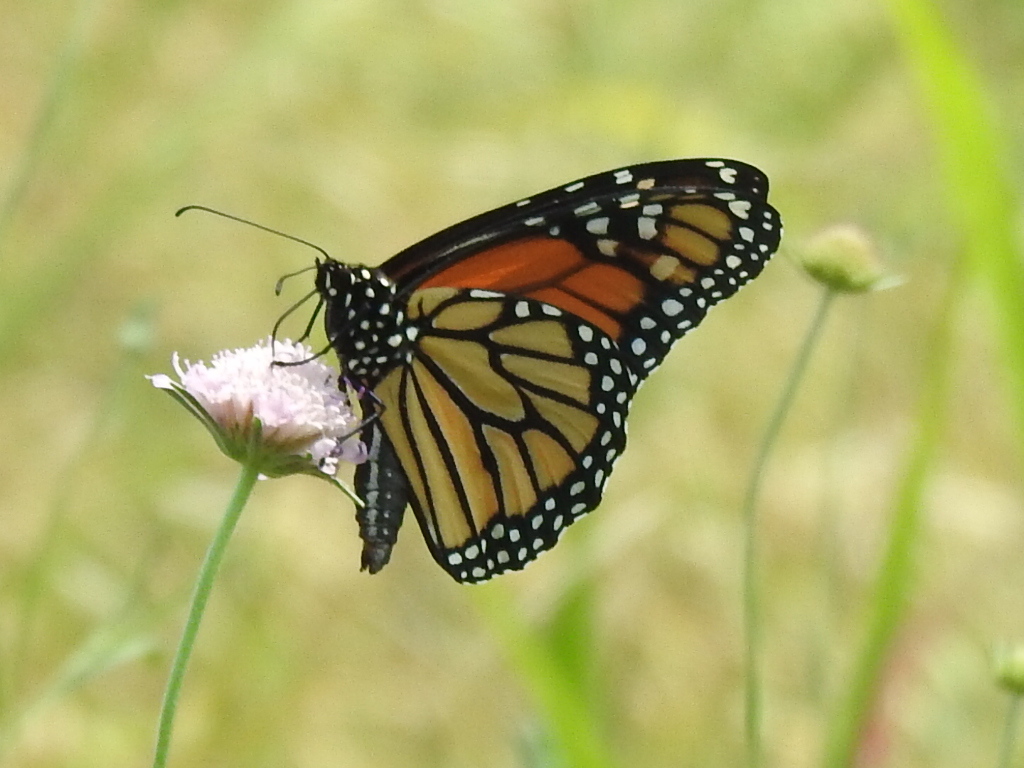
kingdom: Animalia
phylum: Arthropoda
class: Insecta
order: Lepidoptera
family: Nymphalidae
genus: Danaus
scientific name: Danaus plexippus
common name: Monarch
